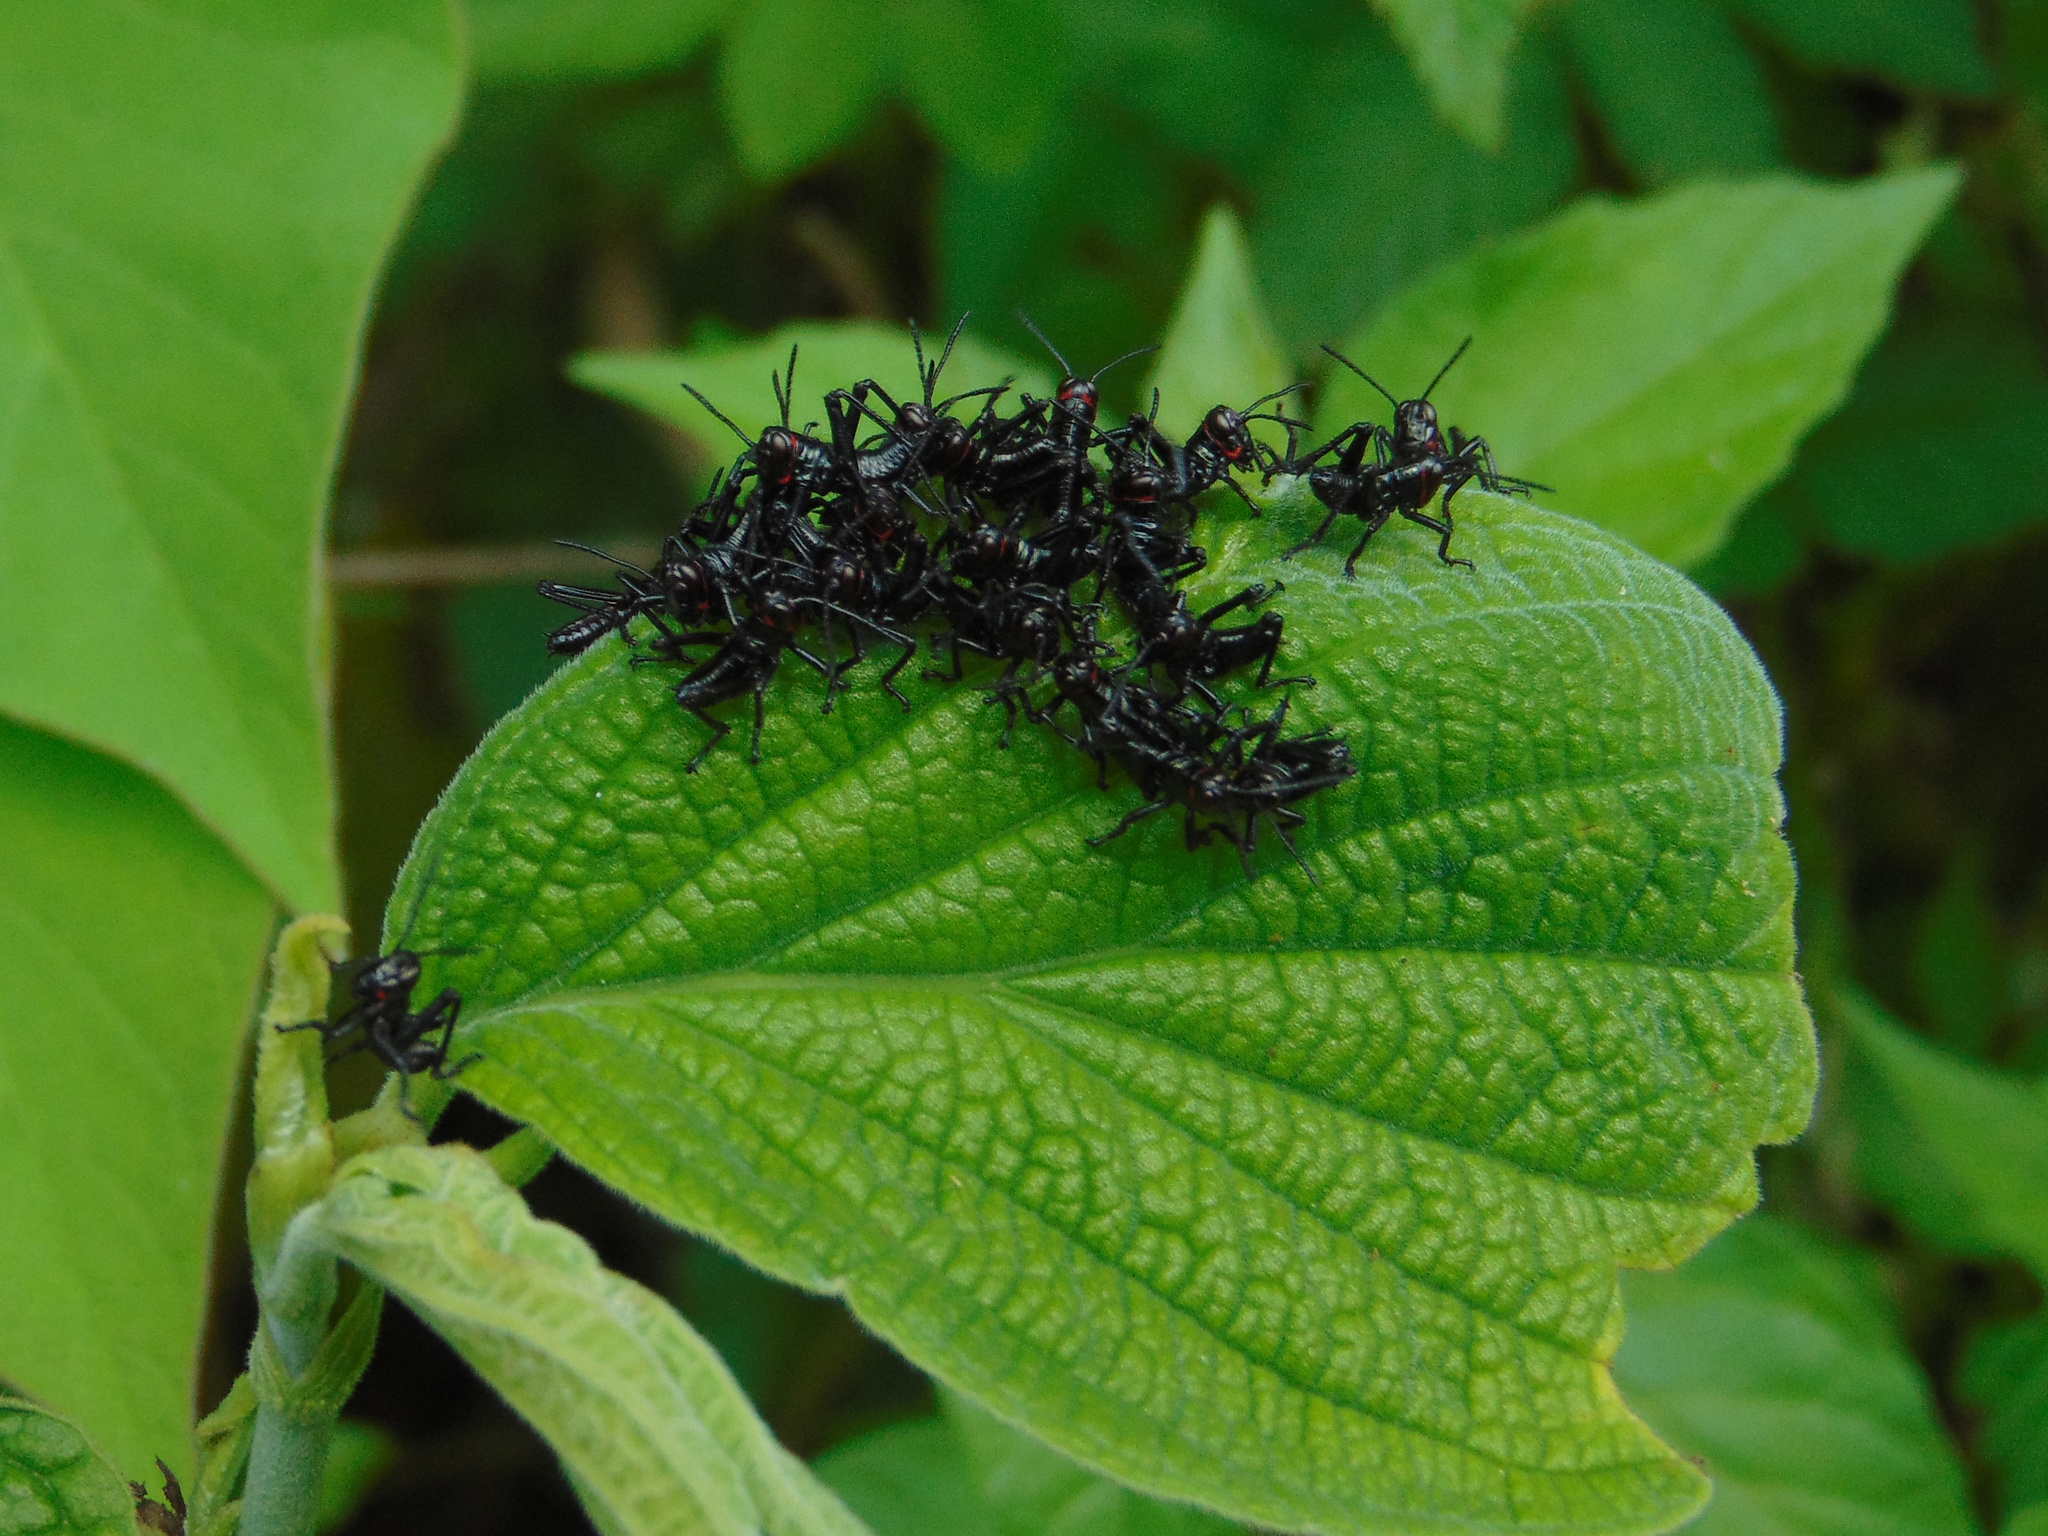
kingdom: Animalia
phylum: Arthropoda
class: Insecta
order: Orthoptera
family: Romaleidae
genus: Chromacris
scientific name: Chromacris speciosa
